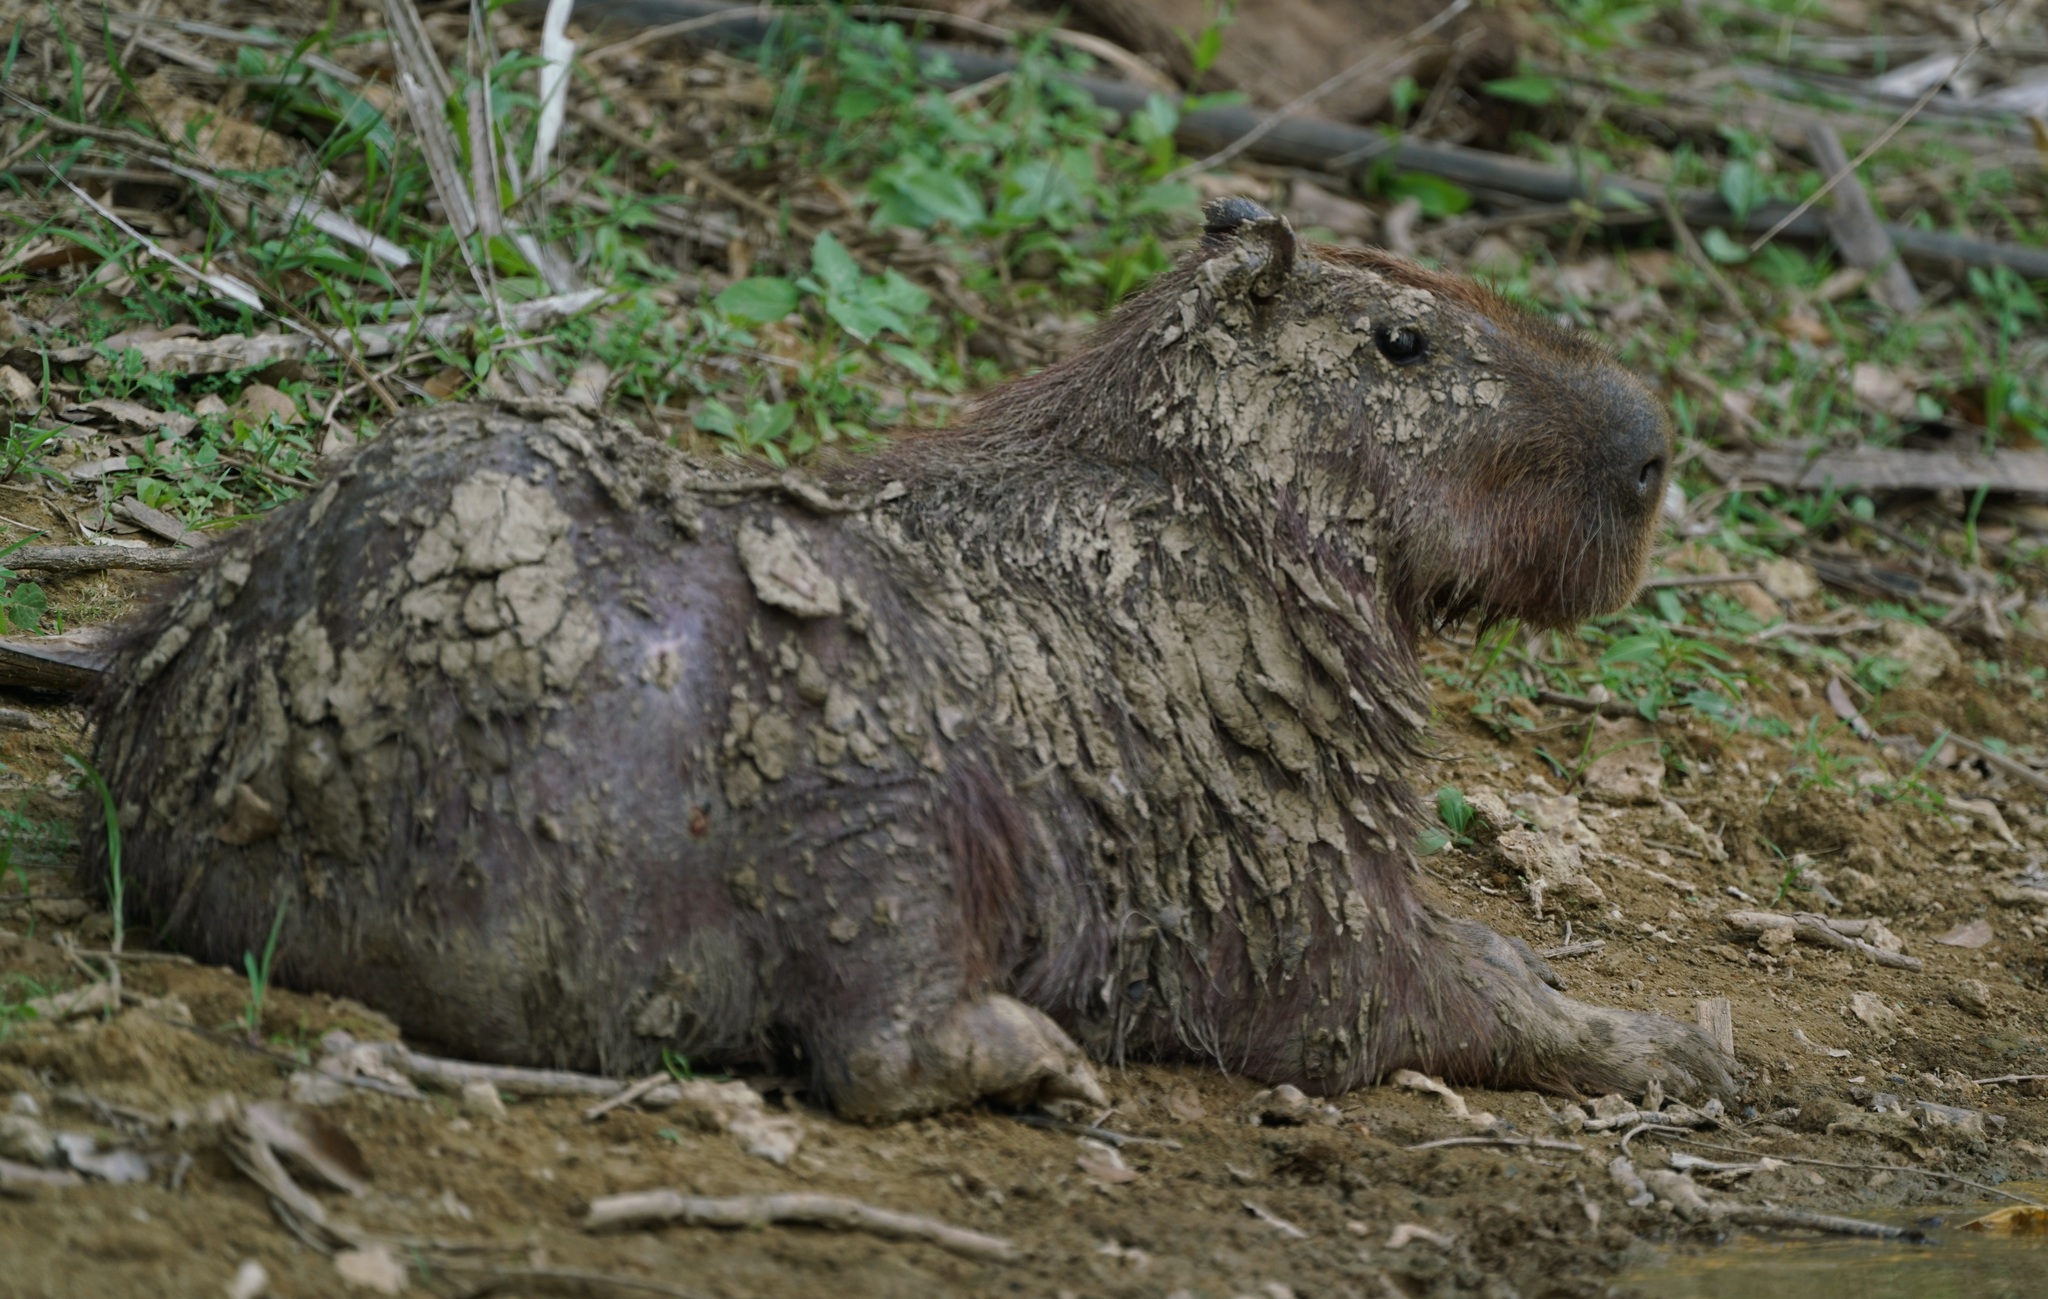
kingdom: Animalia
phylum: Chordata
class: Mammalia
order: Rodentia
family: Caviidae
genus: Hydrochoerus
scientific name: Hydrochoerus hydrochaeris
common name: Capybara
